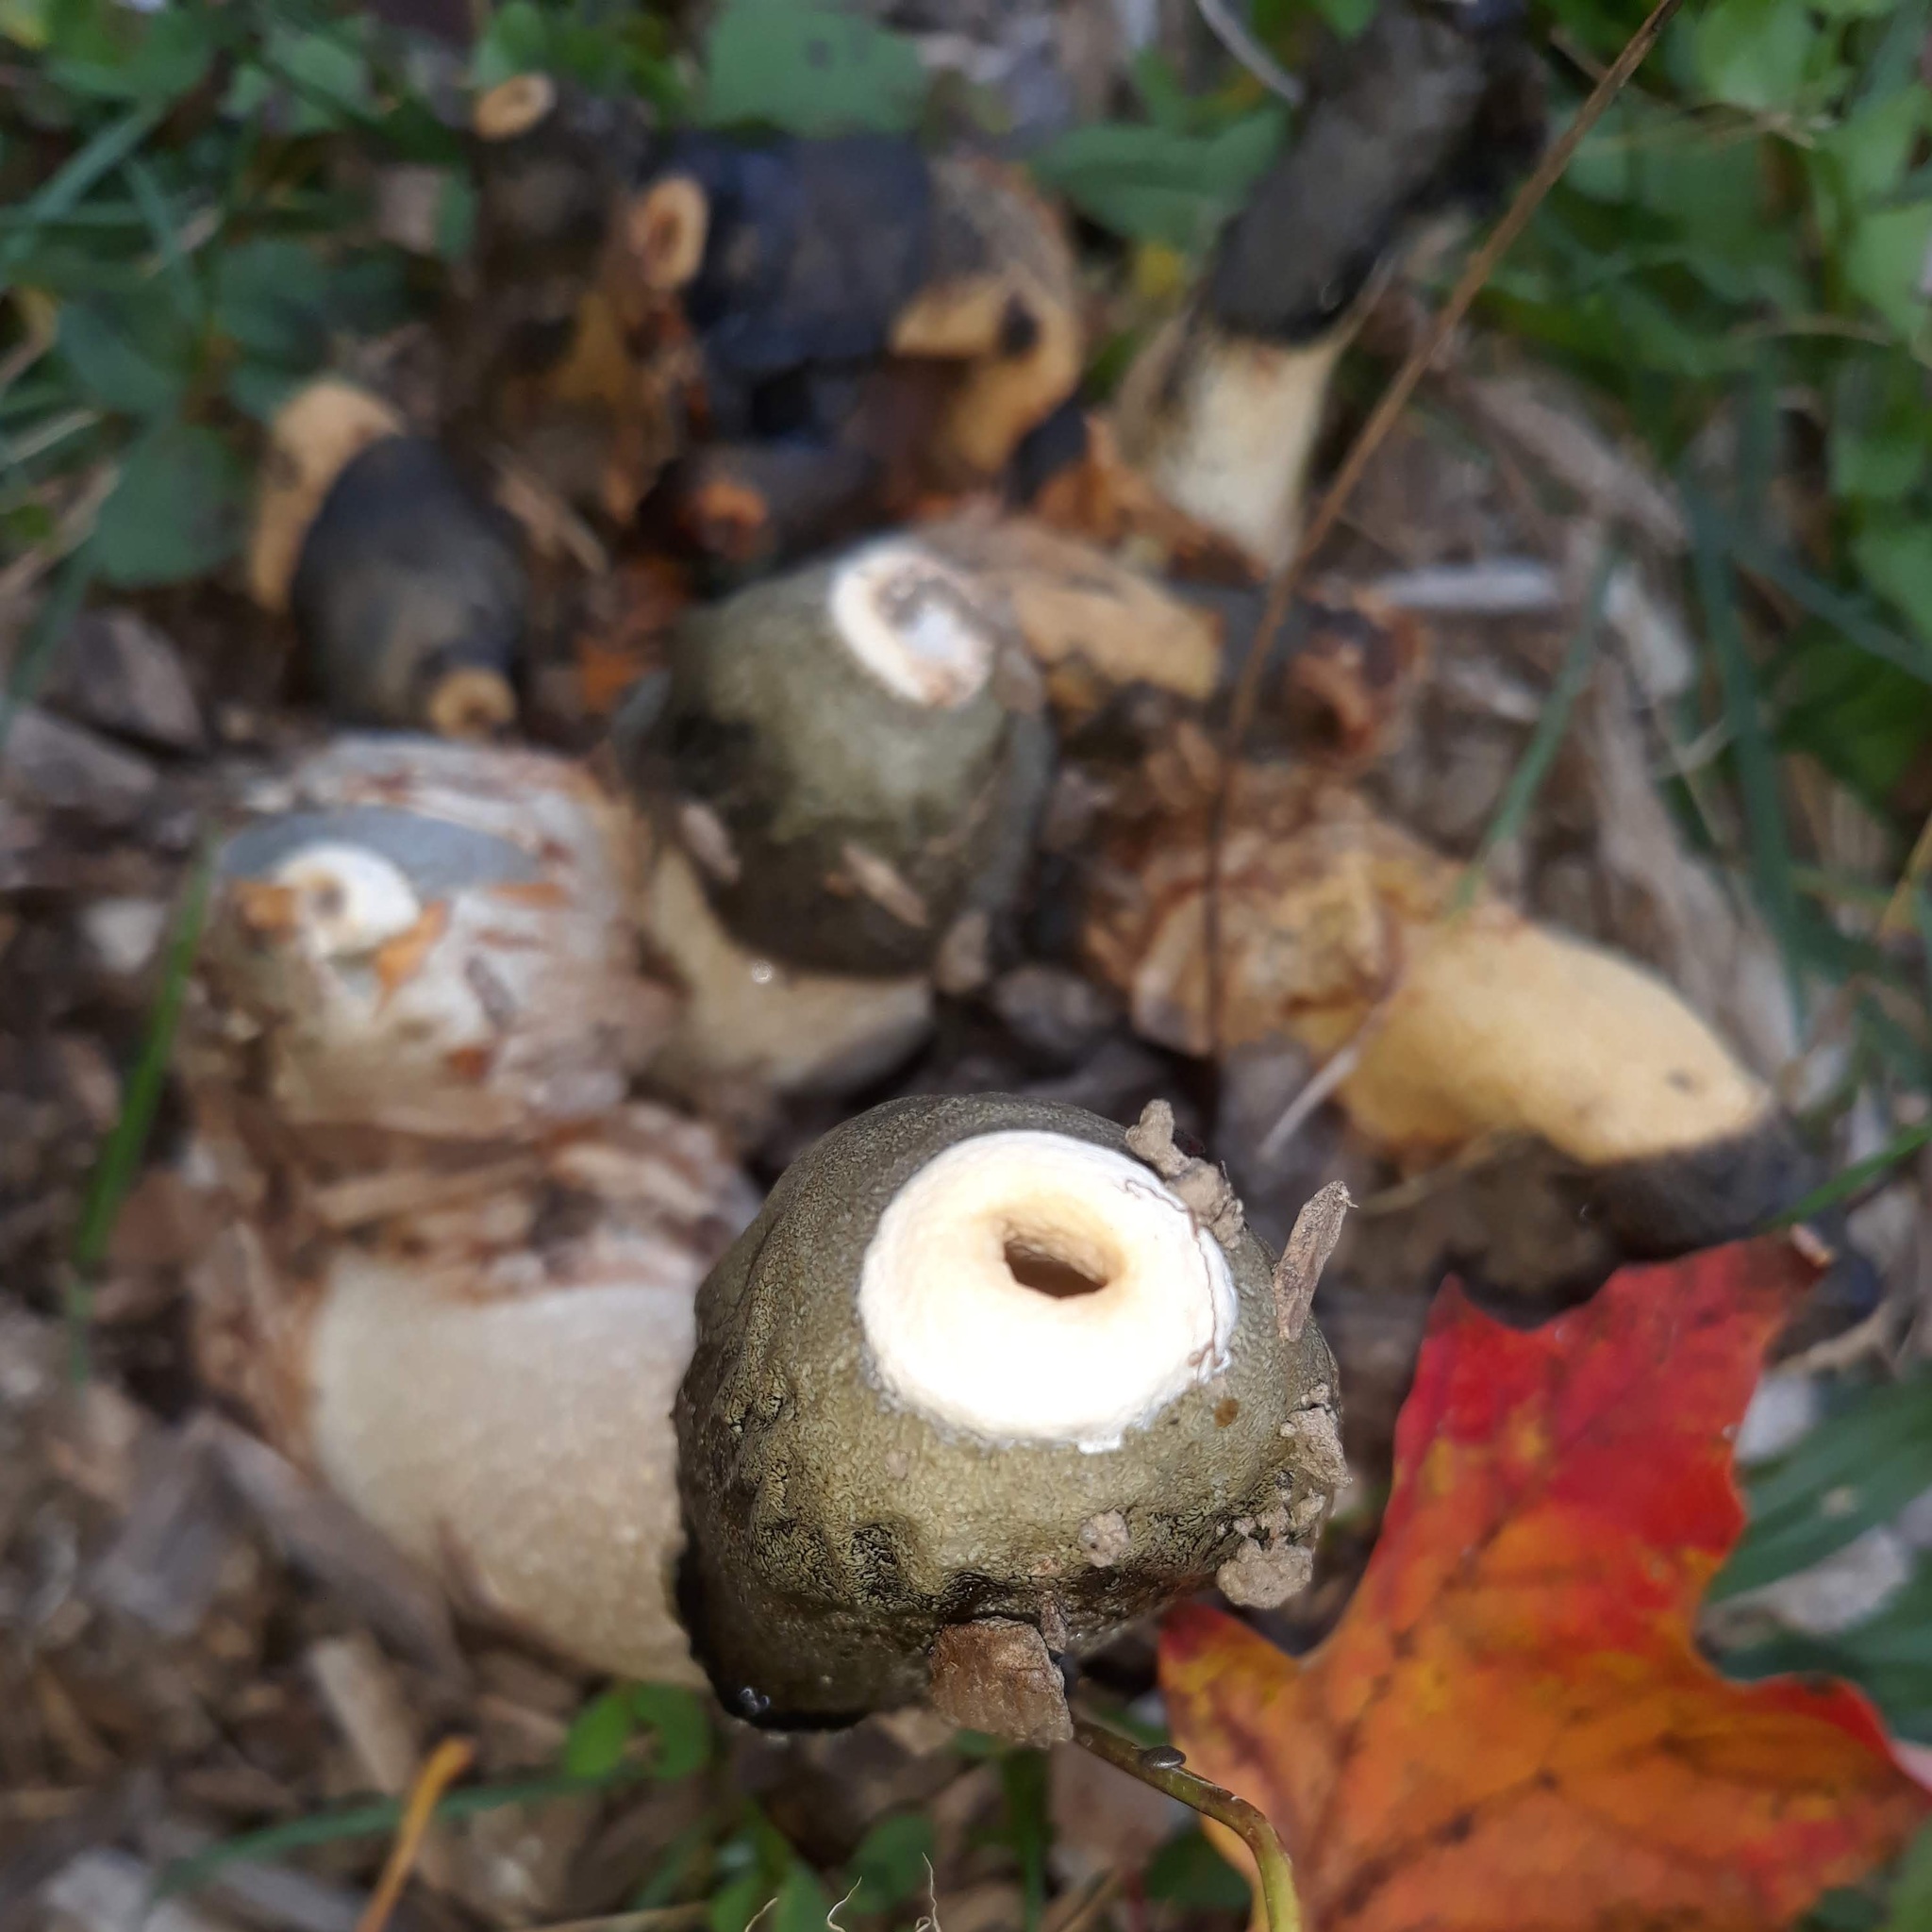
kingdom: Fungi
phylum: Basidiomycota
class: Agaricomycetes
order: Phallales
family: Phallaceae
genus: Phallus
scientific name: Phallus ravenelii
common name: Ravenel's stinkhorn
